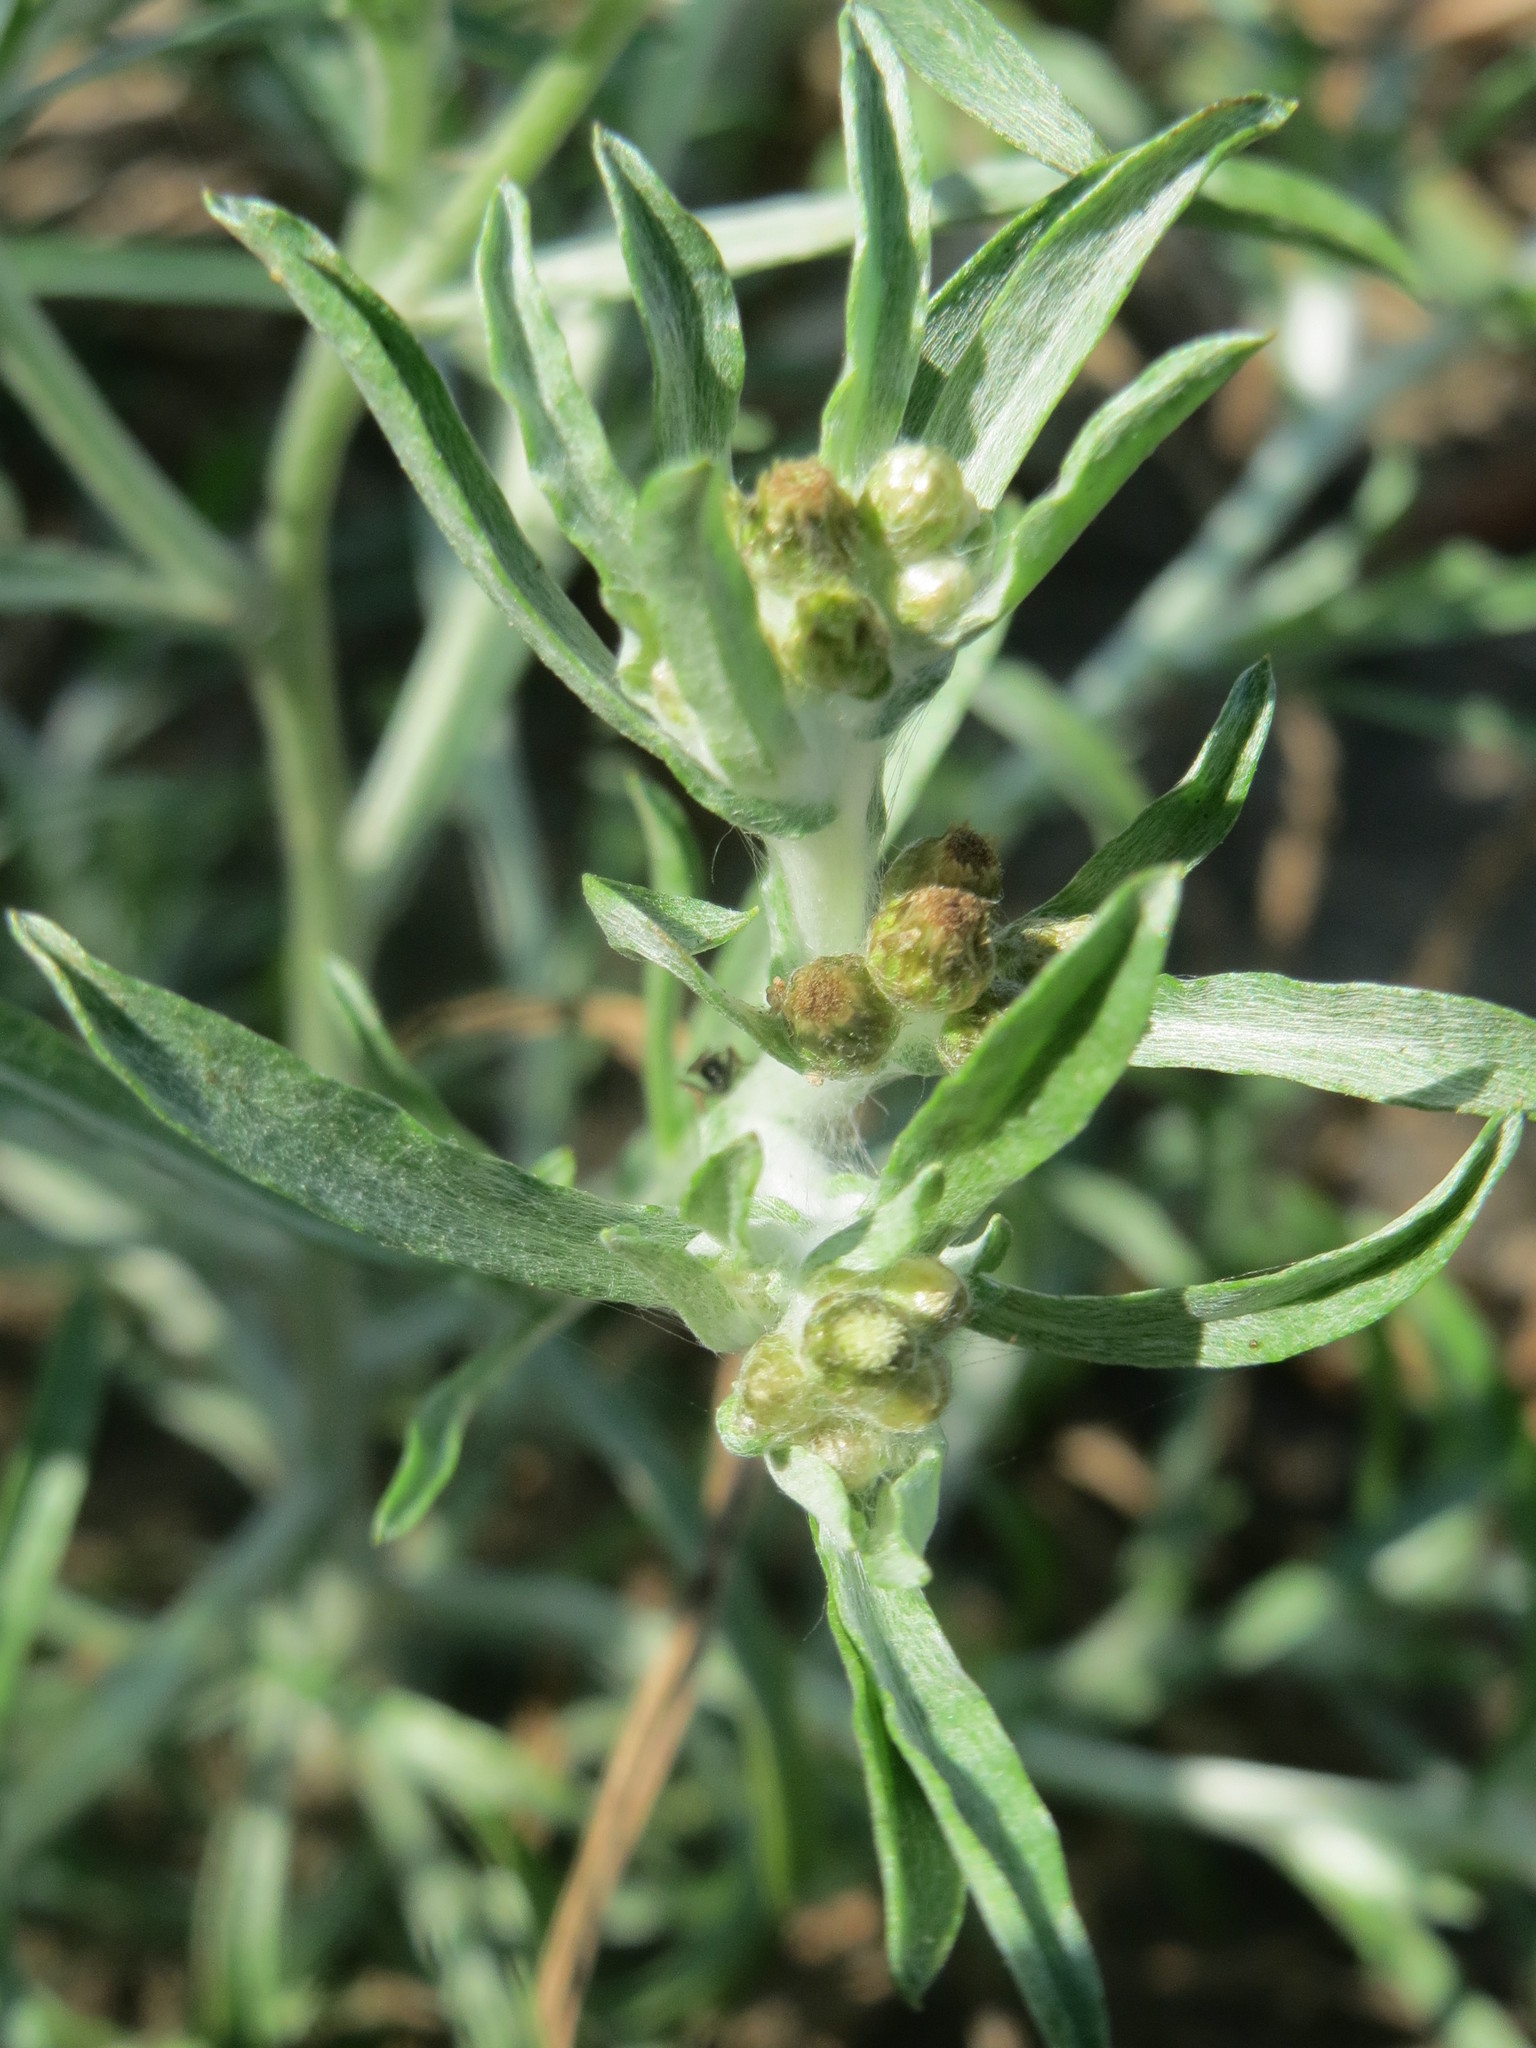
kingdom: Plantae
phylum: Tracheophyta
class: Magnoliopsida
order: Asterales
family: Asteraceae
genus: Gnaphalium
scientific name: Gnaphalium uliginosum
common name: Marsh cudweed
